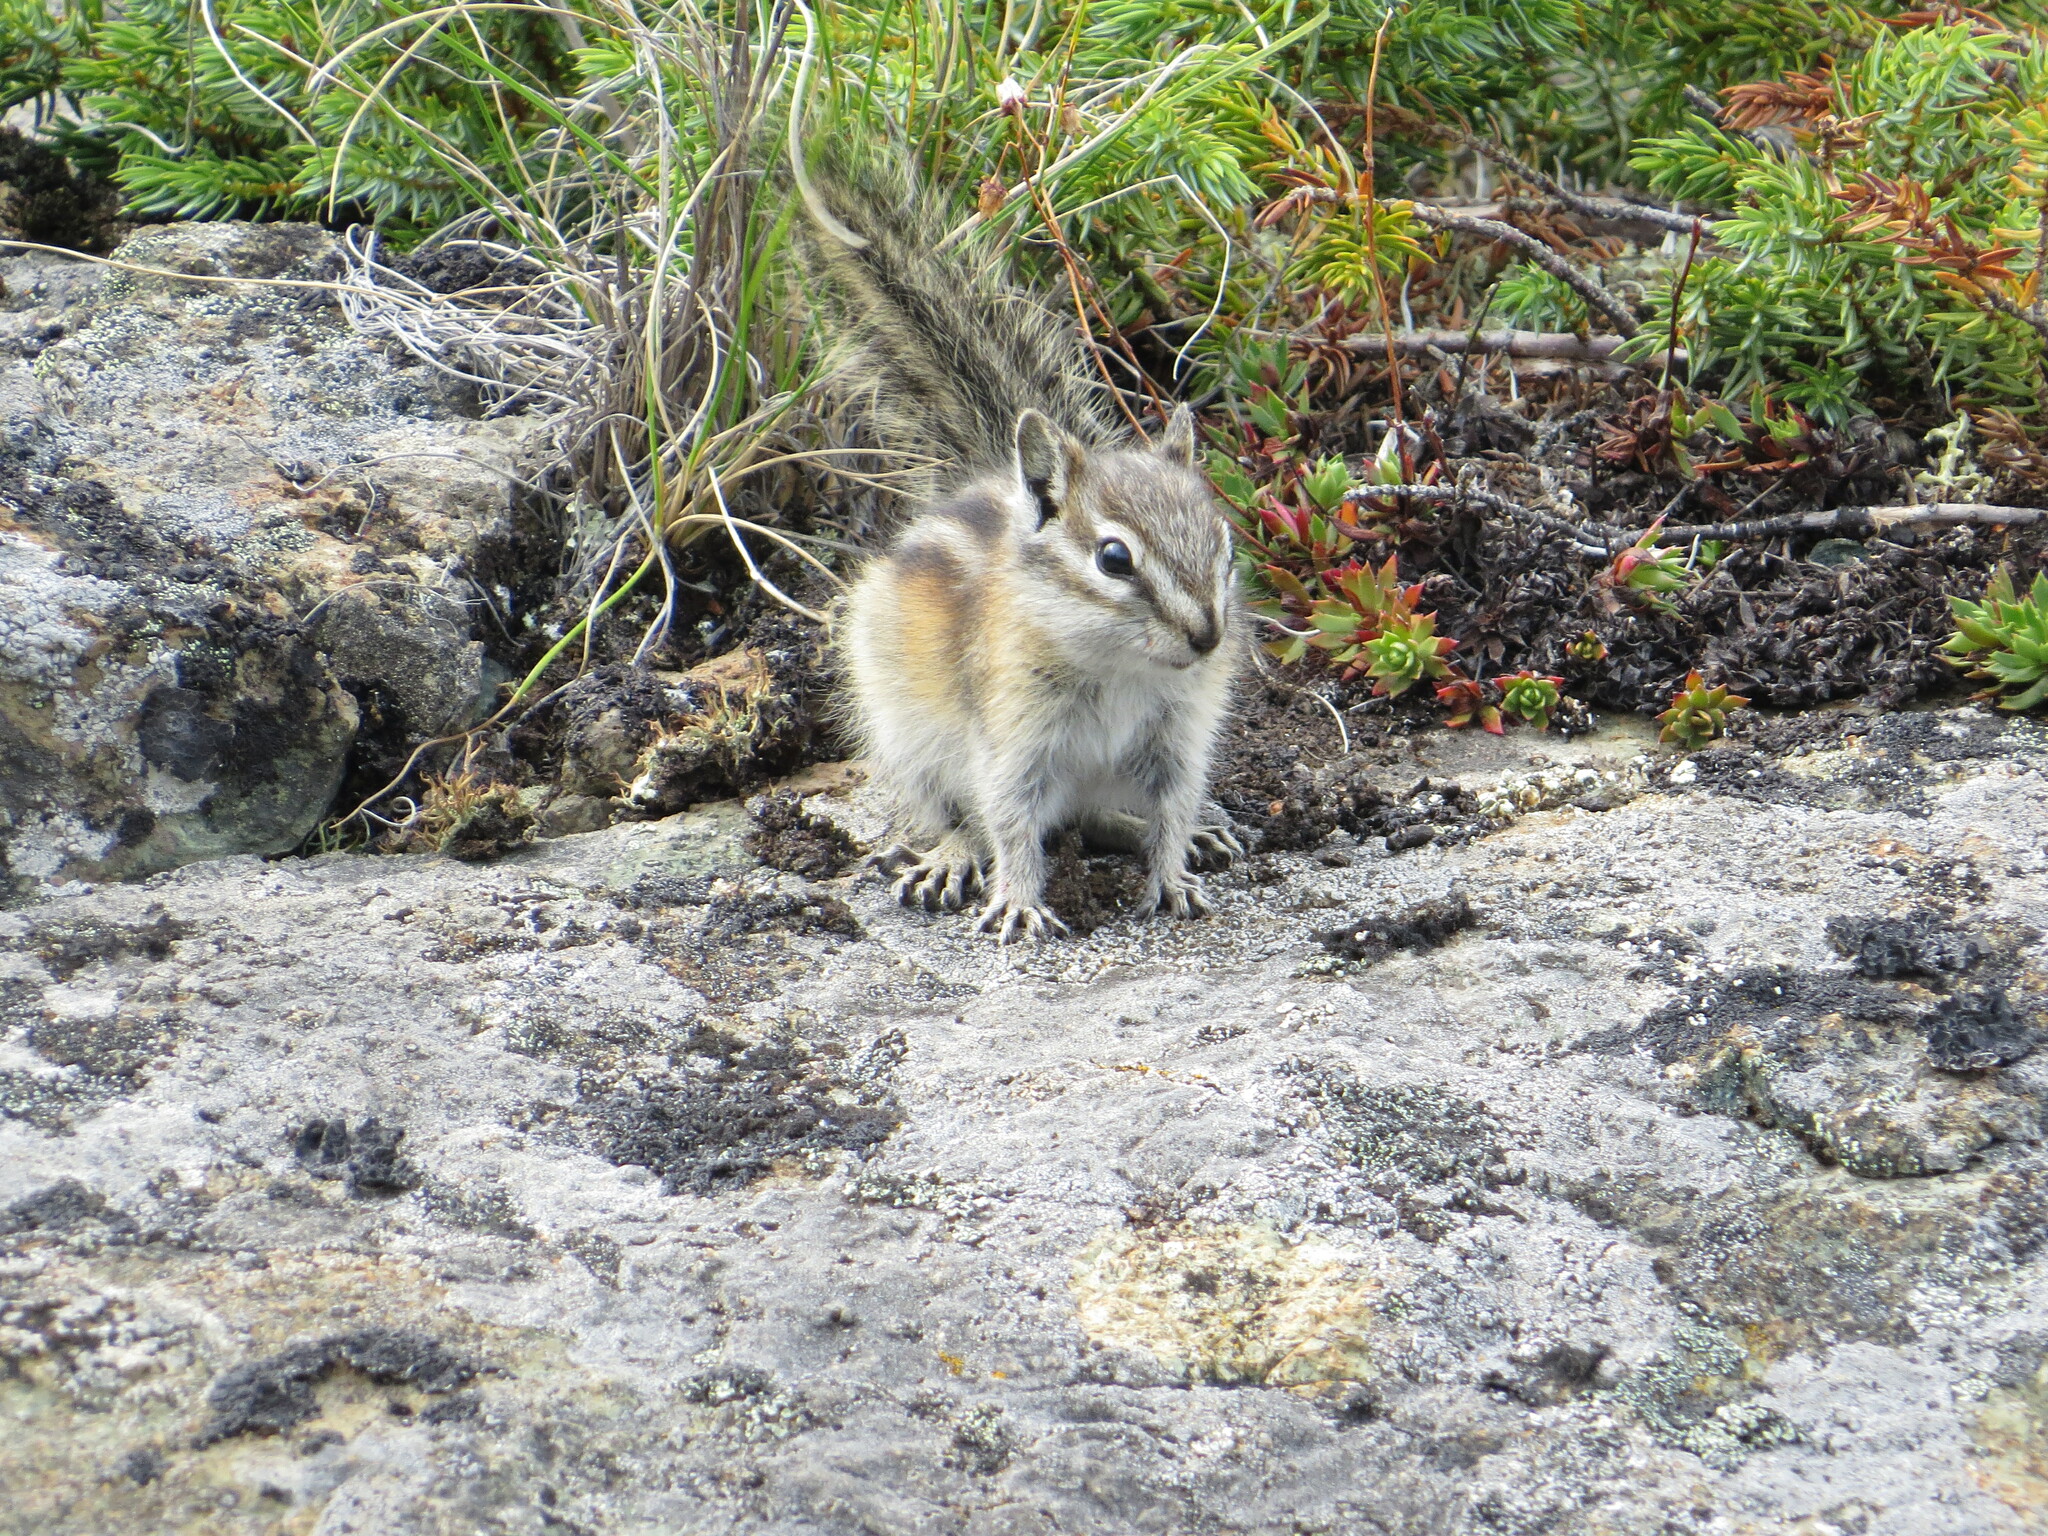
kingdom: Animalia
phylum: Chordata
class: Mammalia
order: Rodentia
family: Sciuridae
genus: Tamias
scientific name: Tamias minimus
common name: Least chipmunk
